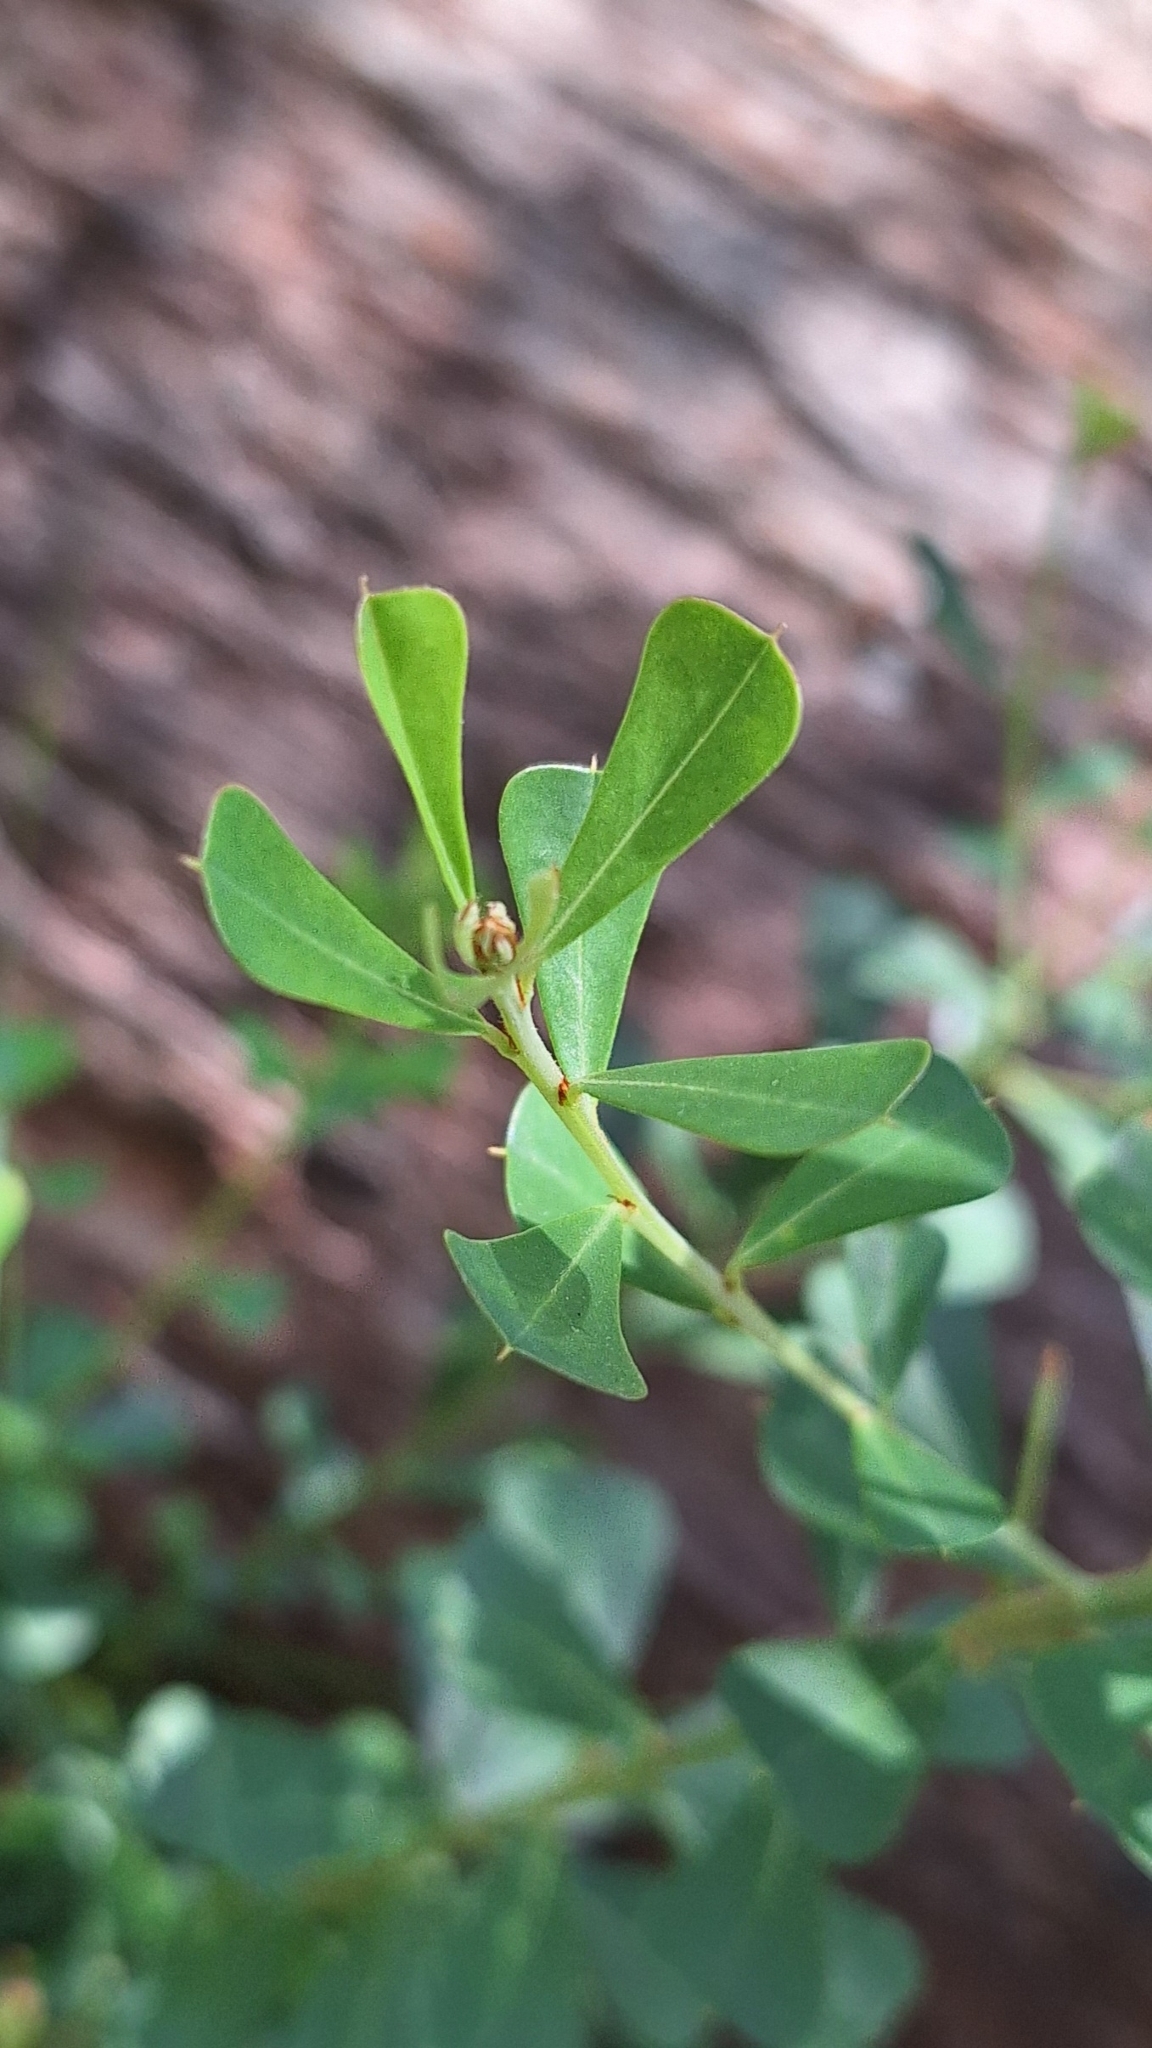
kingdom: Plantae
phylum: Tracheophyta
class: Magnoliopsida
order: Fabales
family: Fabaceae
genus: Pultenaea
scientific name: Pultenaea daphnoides
